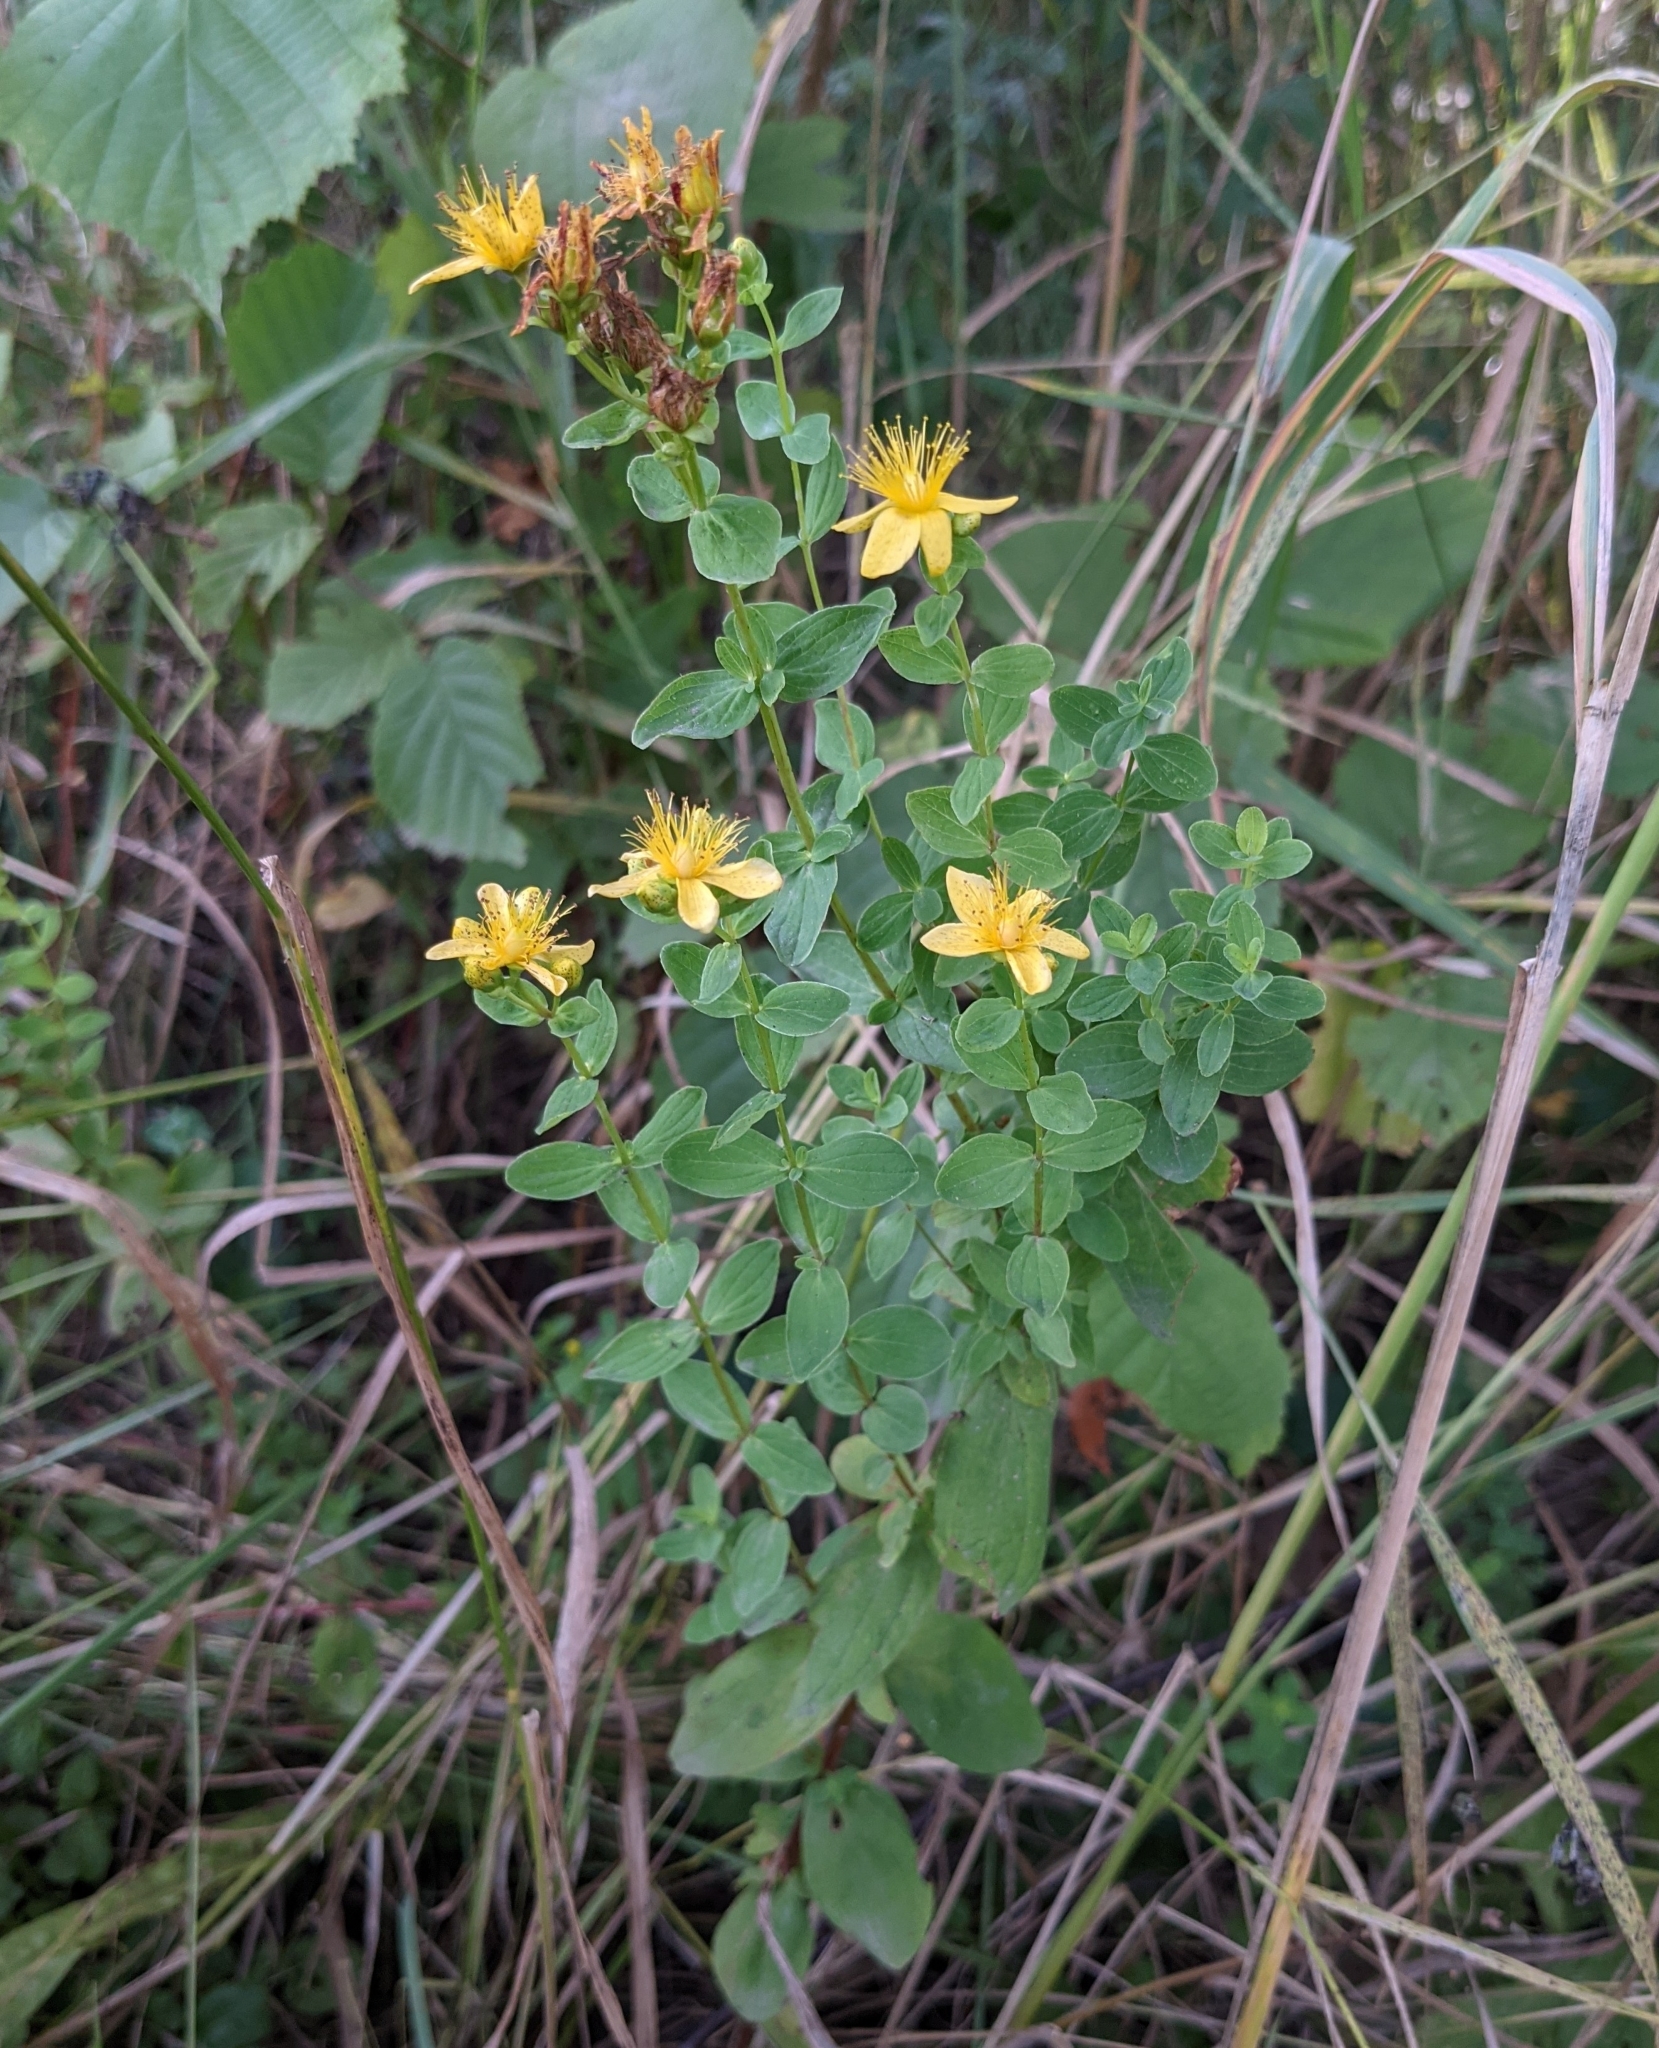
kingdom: Plantae
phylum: Tracheophyta
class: Magnoliopsida
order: Malpighiales
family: Hypericaceae
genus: Hypericum
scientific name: Hypericum maculatum
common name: Imperforate st. john's-wort
